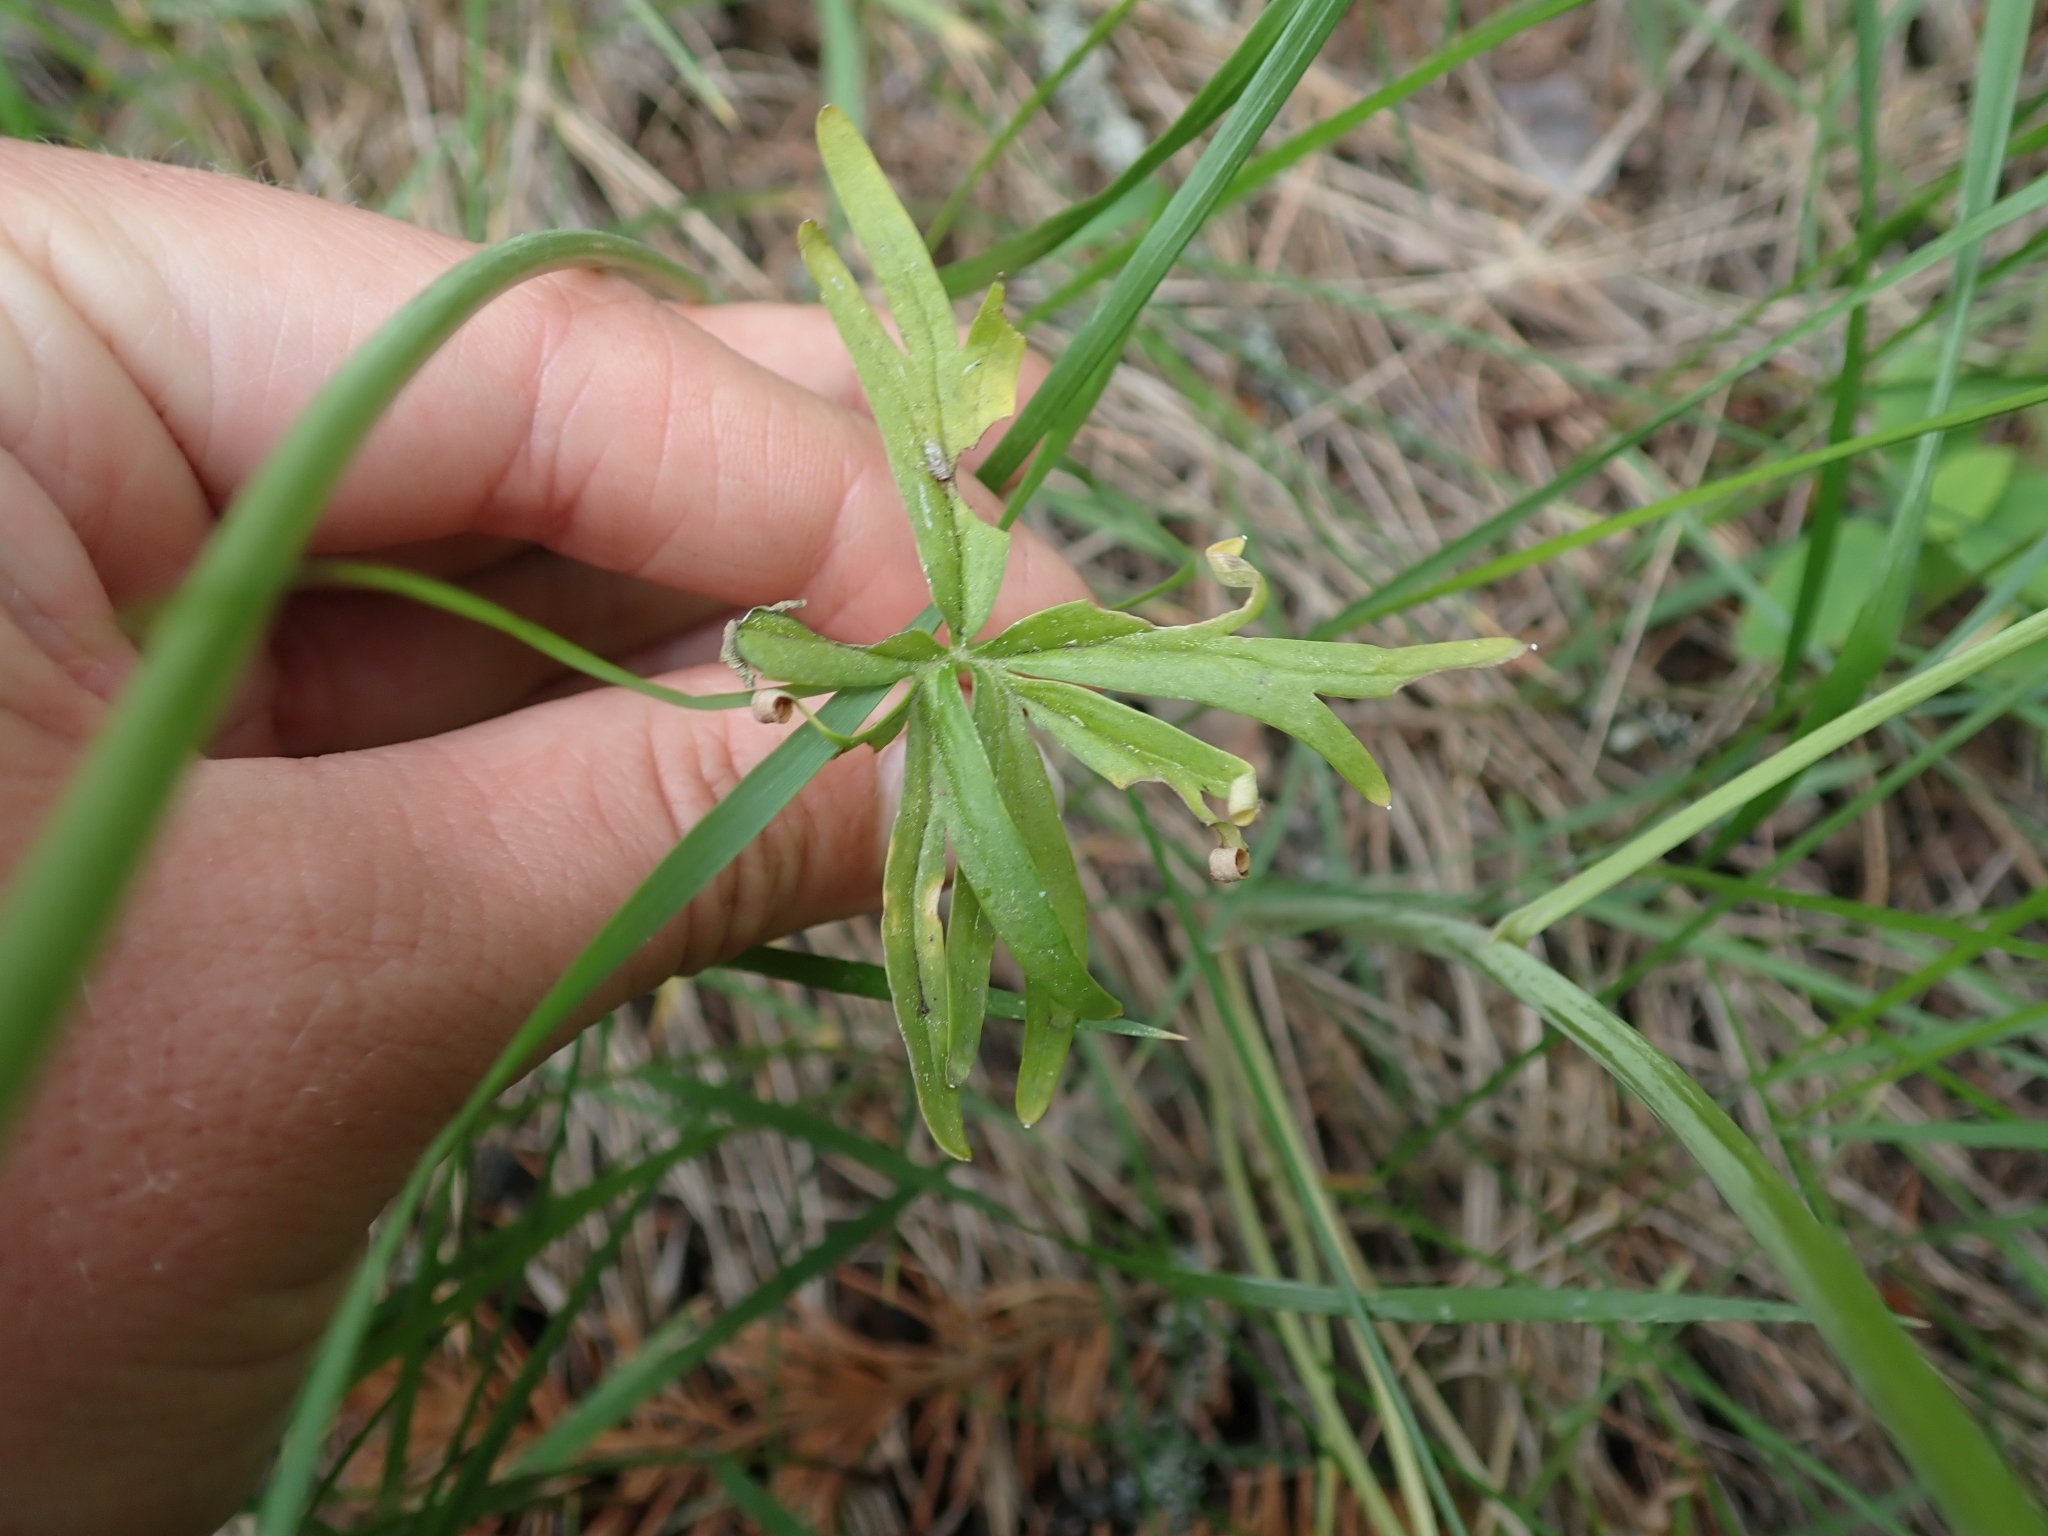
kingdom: Plantae
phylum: Tracheophyta
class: Magnoliopsida
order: Ranunculales
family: Ranunculaceae
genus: Delphinium
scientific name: Delphinium nuttallianum
